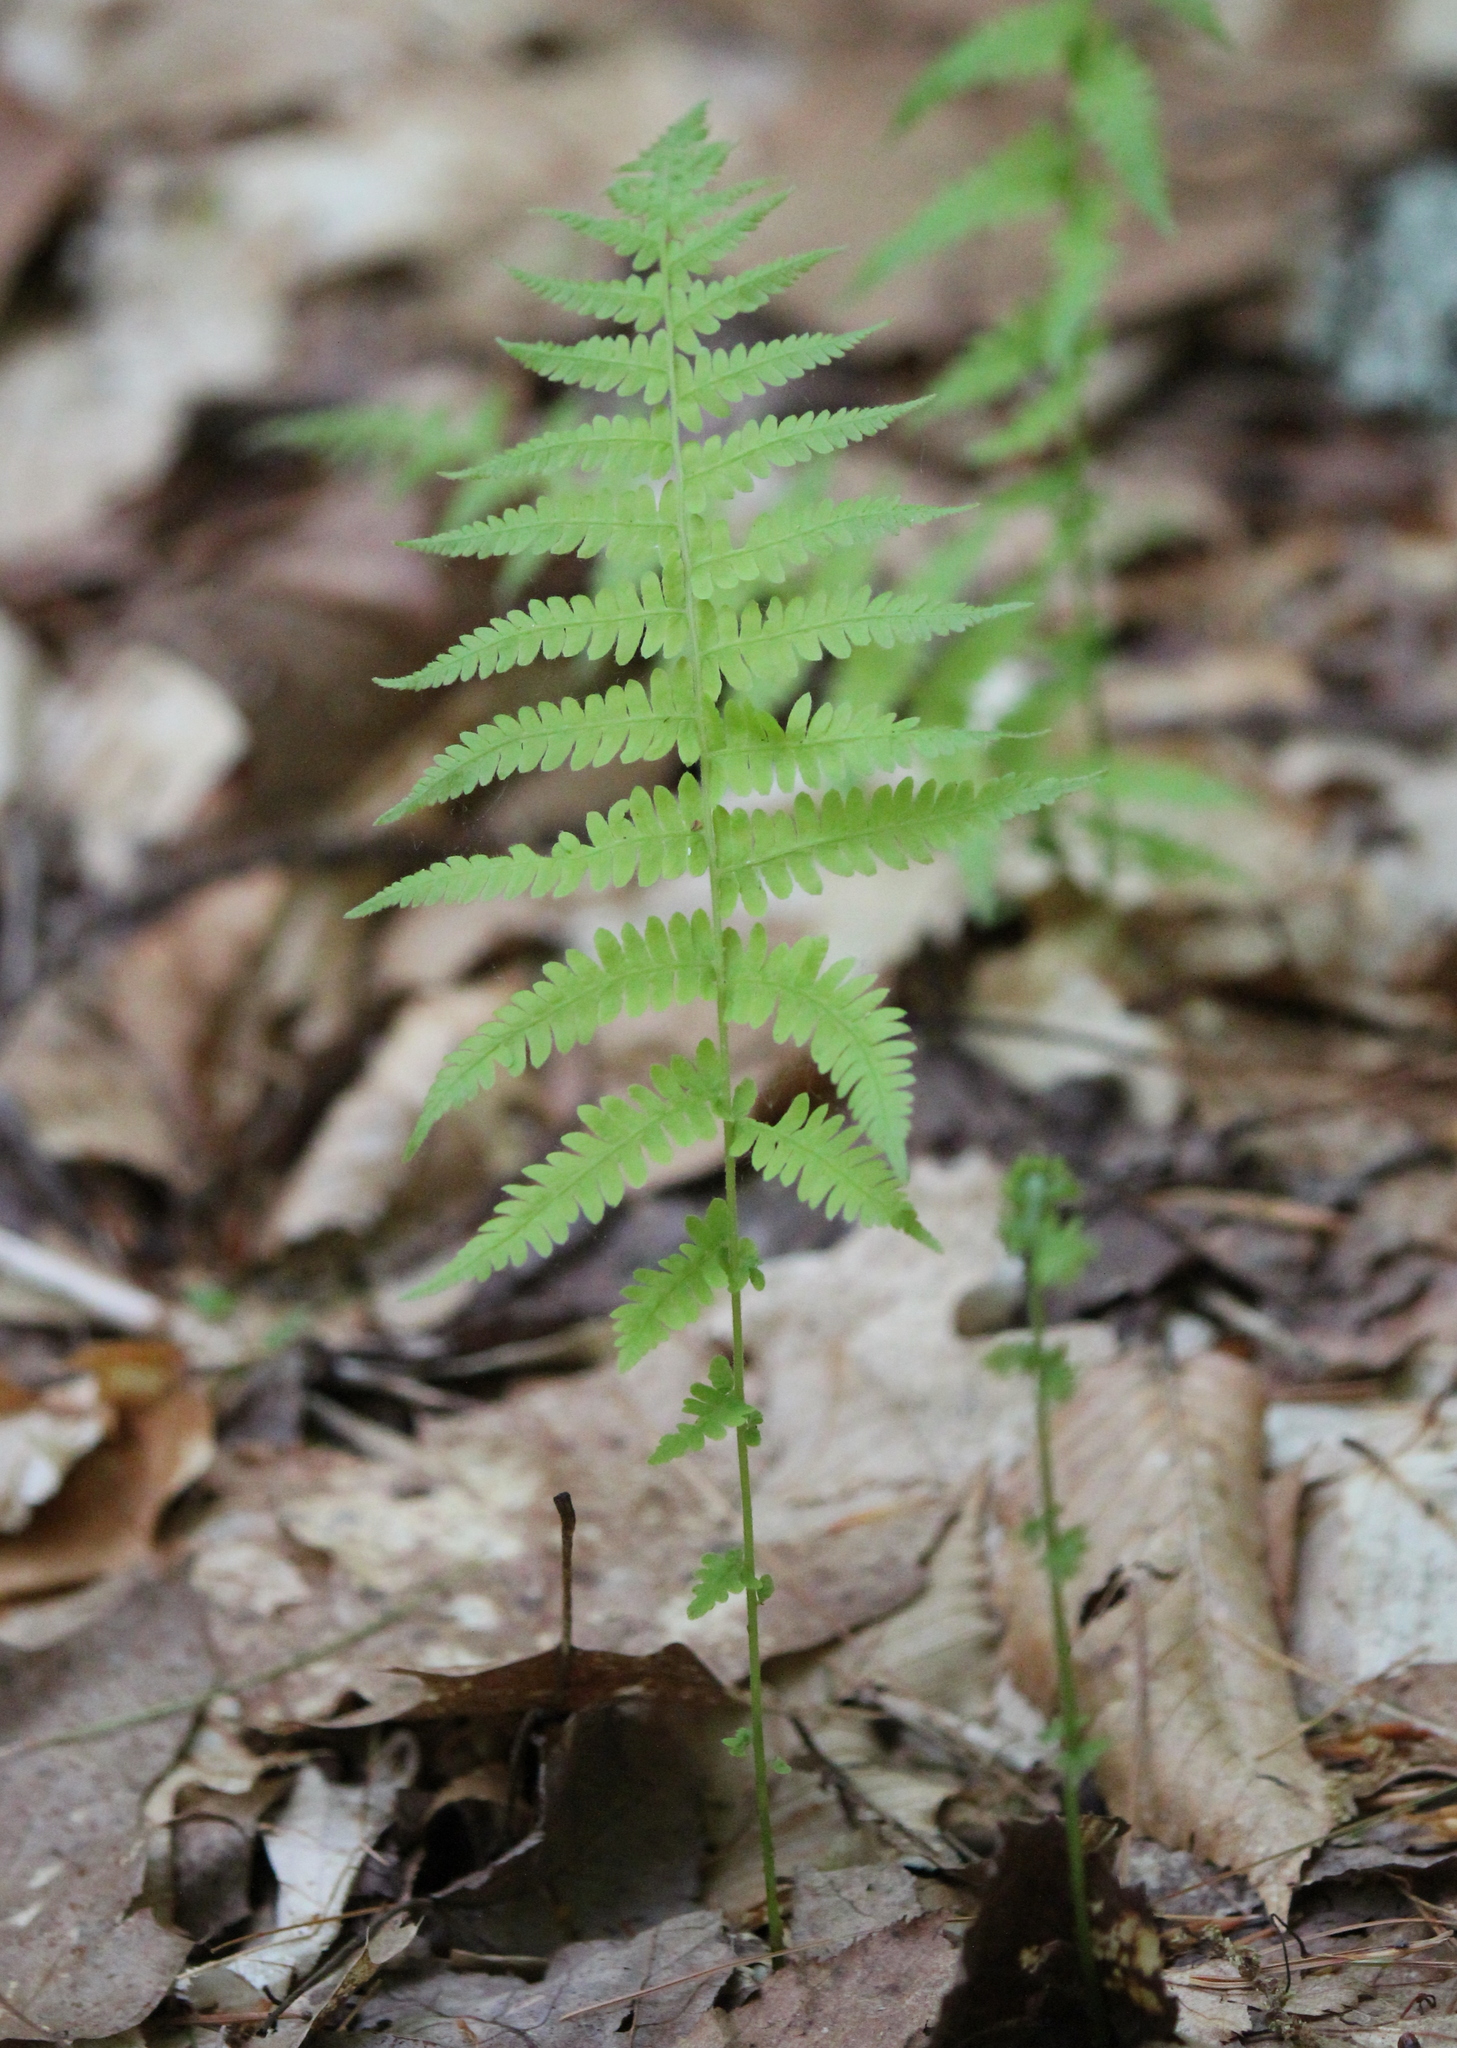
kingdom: Plantae
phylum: Tracheophyta
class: Polypodiopsida
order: Polypodiales
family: Thelypteridaceae
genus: Amauropelta
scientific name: Amauropelta noveboracensis
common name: New york fern
